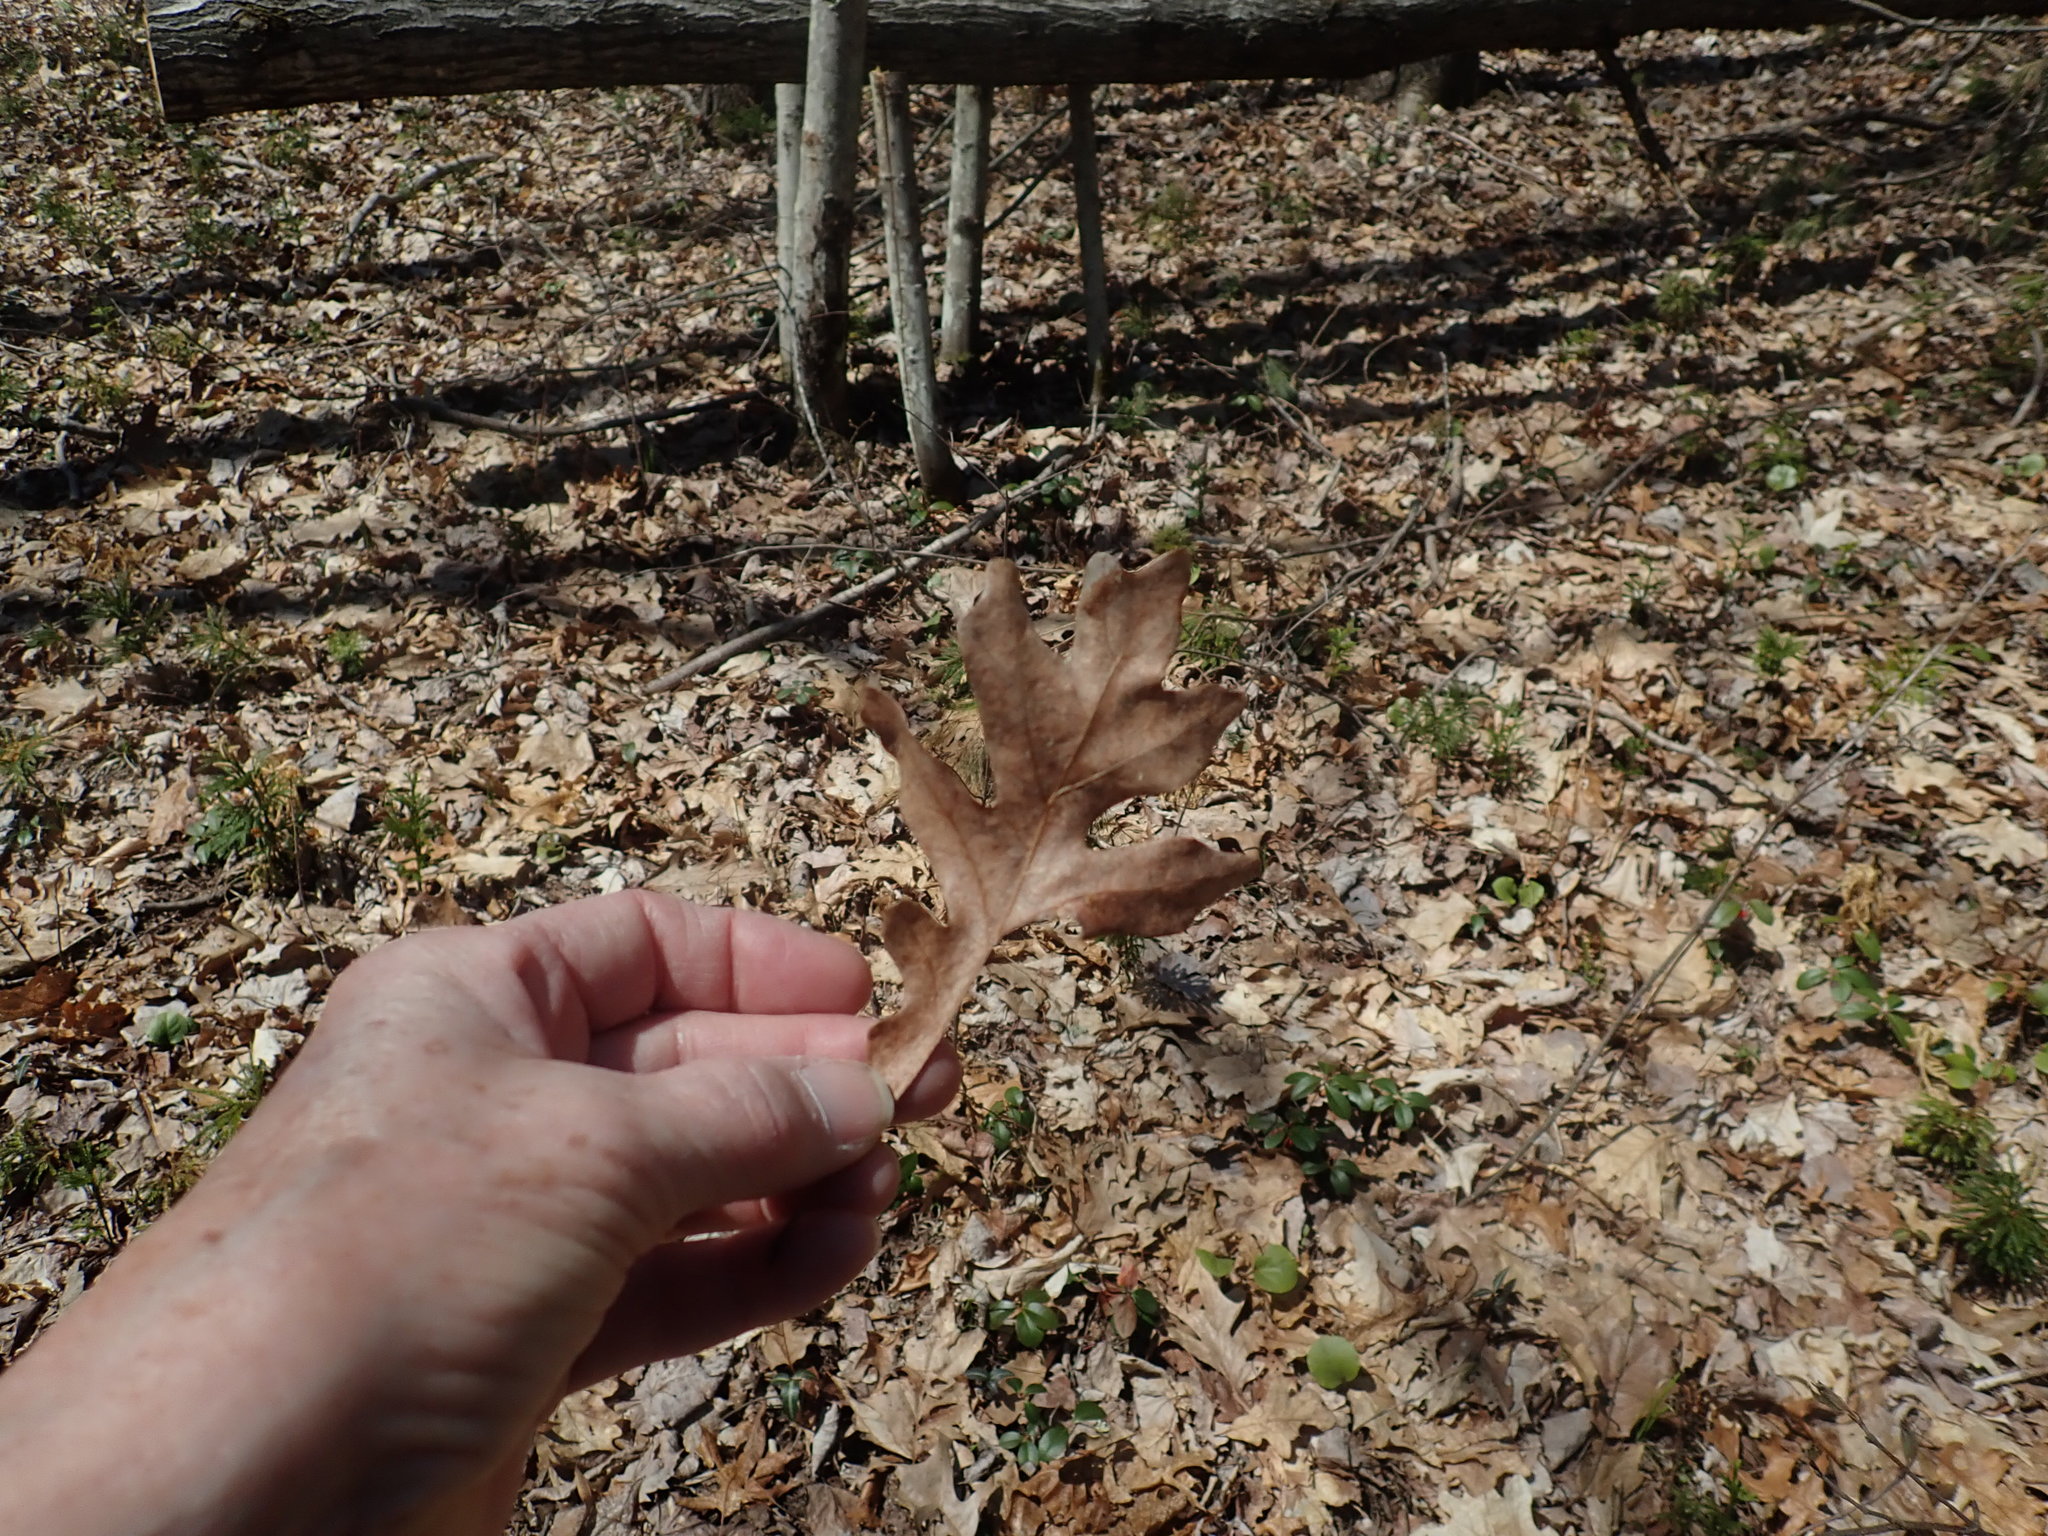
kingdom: Plantae
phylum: Tracheophyta
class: Magnoliopsida
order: Fagales
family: Fagaceae
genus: Quercus
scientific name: Quercus alba
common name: White oak
